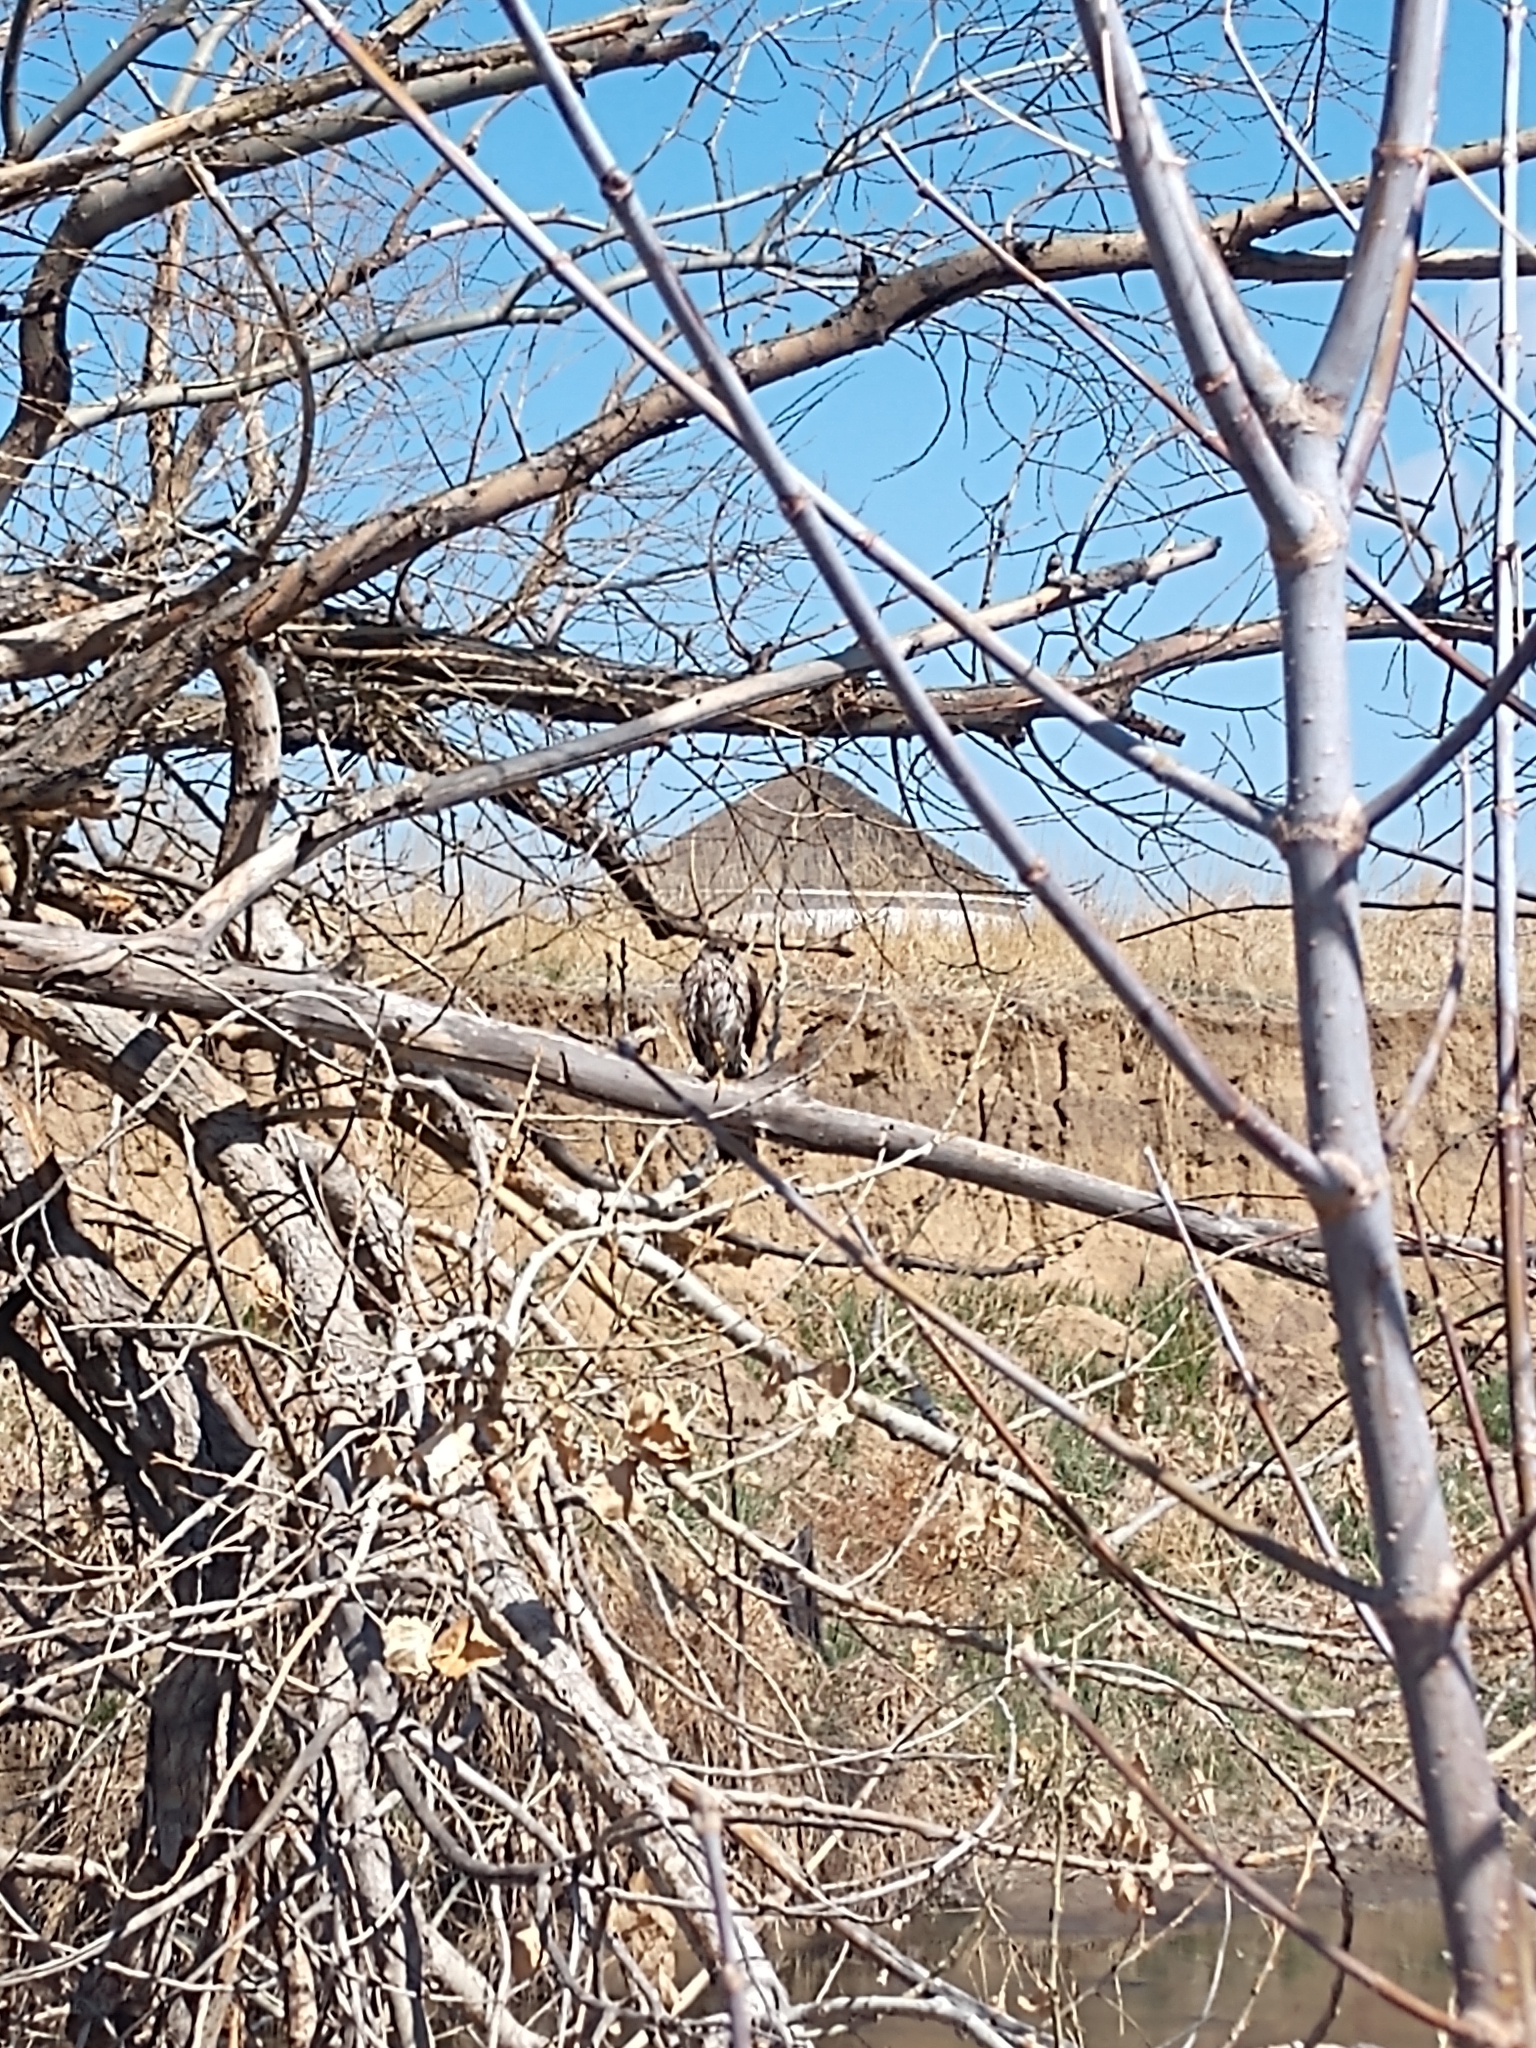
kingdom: Animalia
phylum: Chordata
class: Aves
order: Accipitriformes
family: Accipitridae
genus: Accipiter
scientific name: Accipiter striatus
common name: Sharp-shinned hawk
